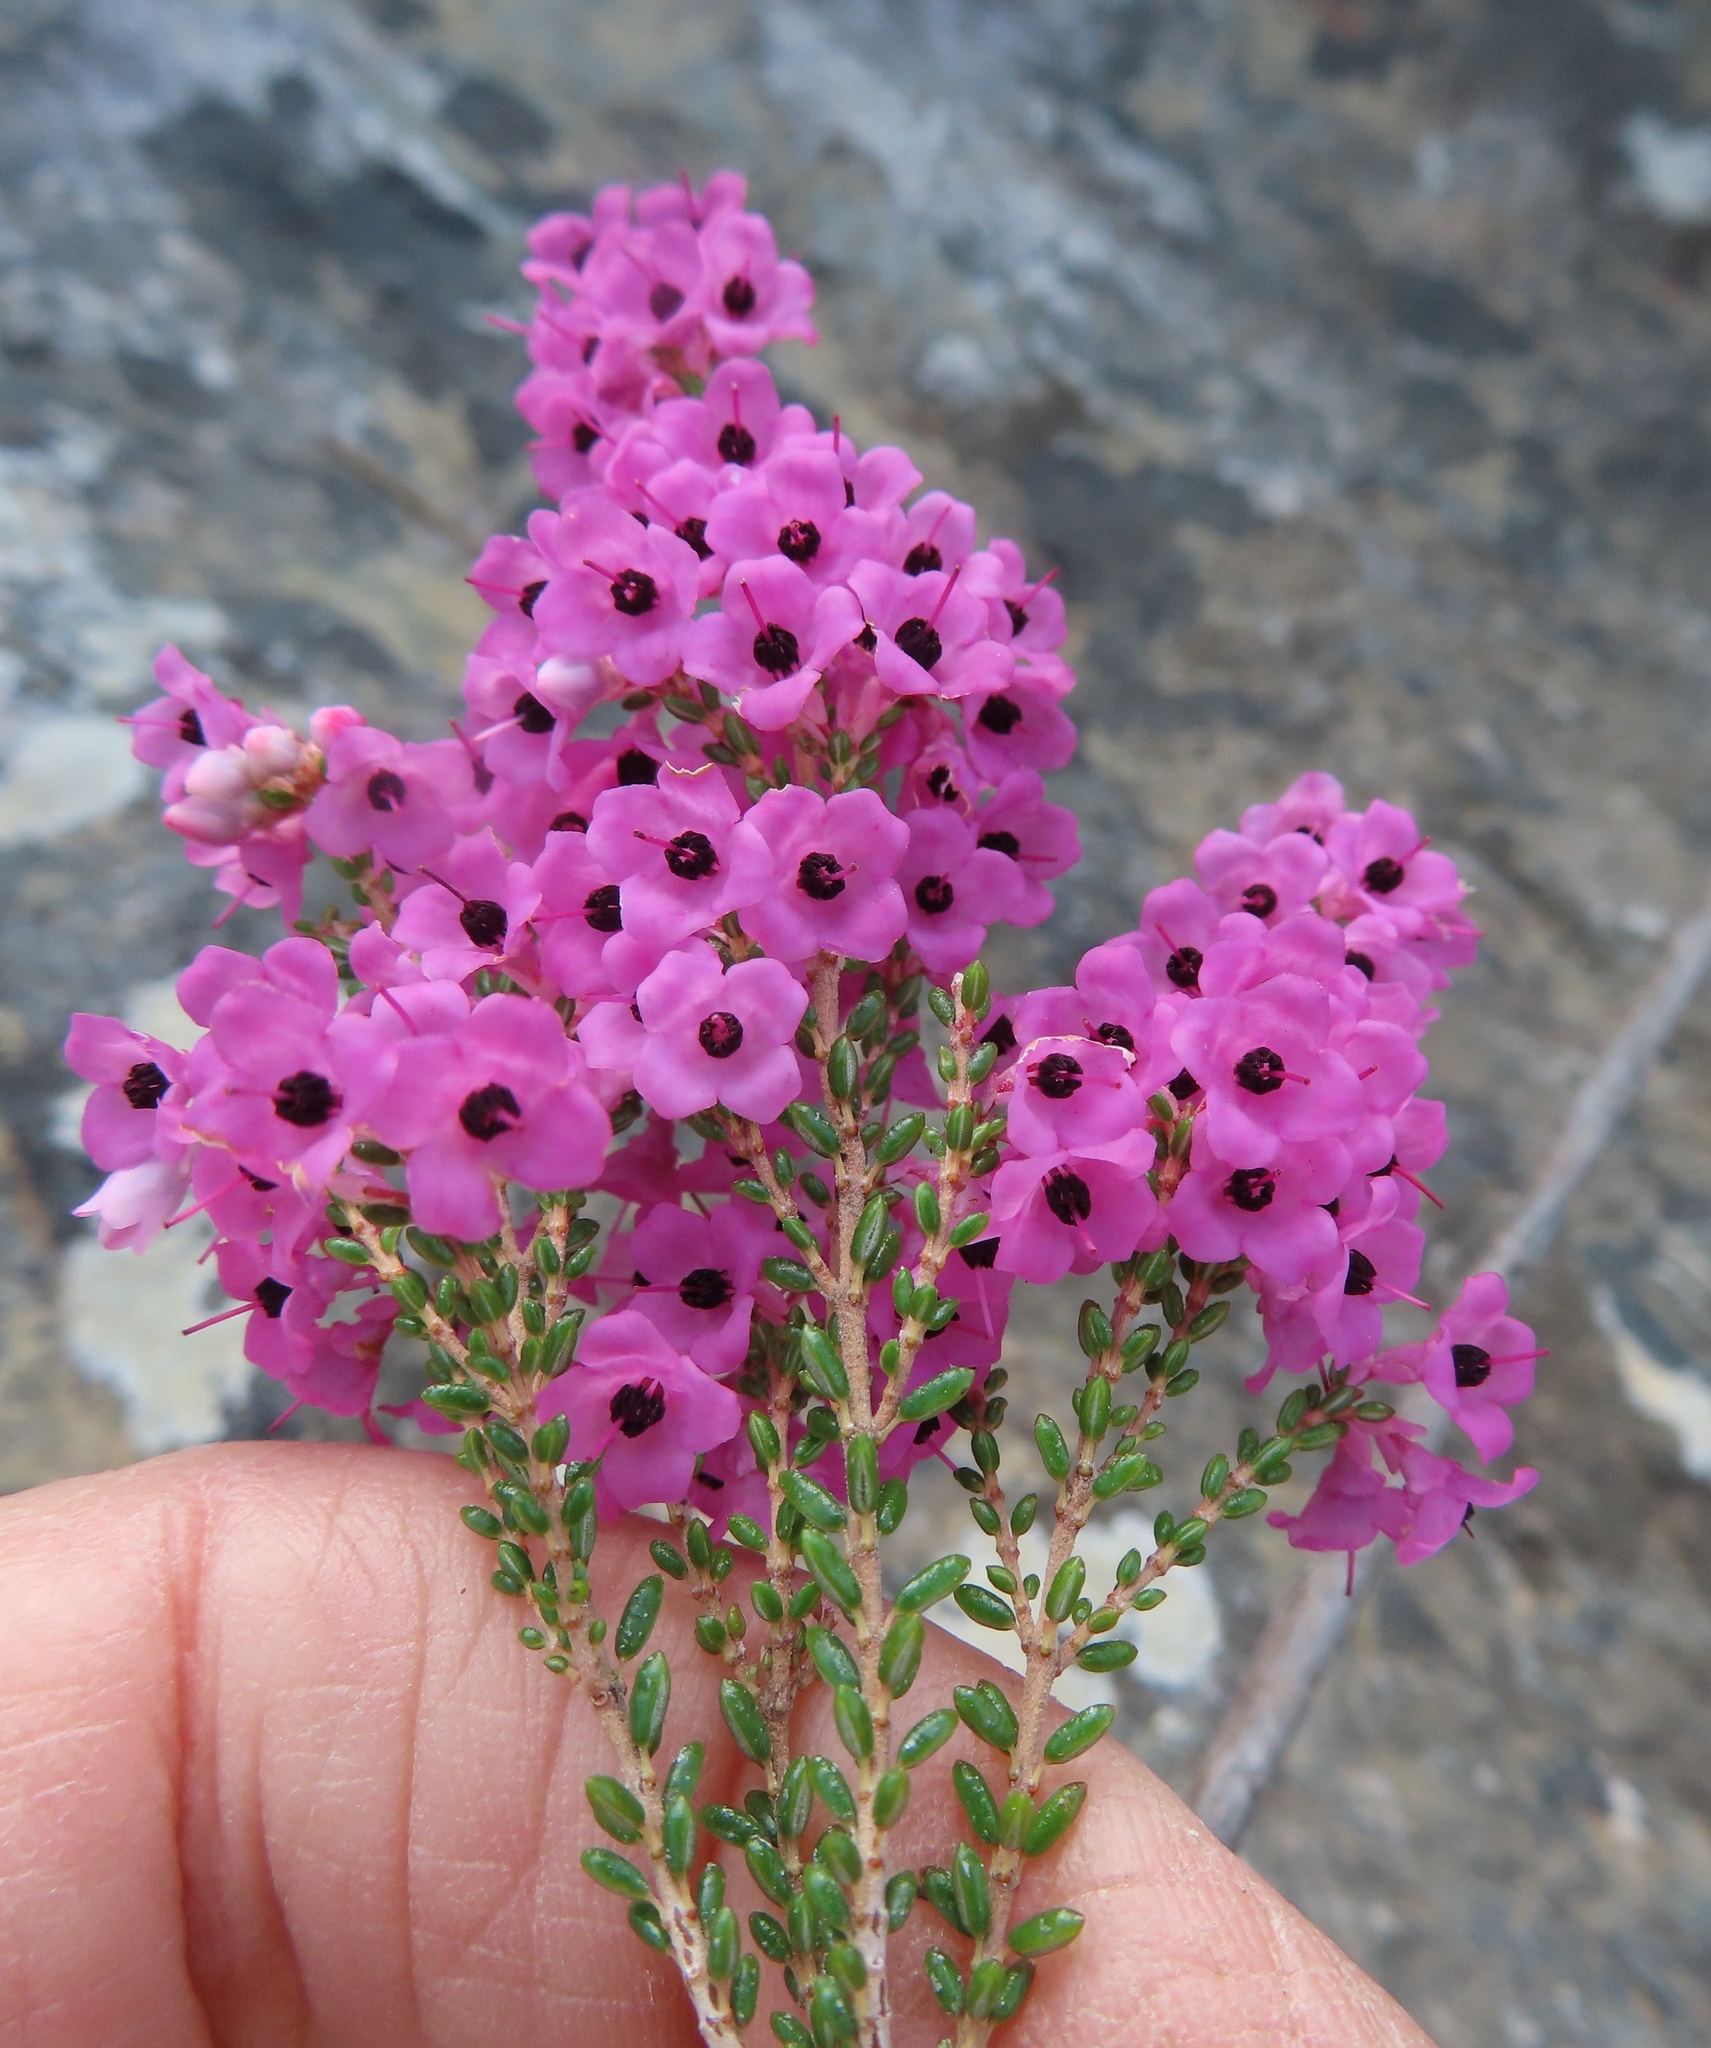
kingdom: Plantae
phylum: Tracheophyta
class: Magnoliopsida
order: Ericales
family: Ericaceae
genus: Erica
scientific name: Erica melanthera
